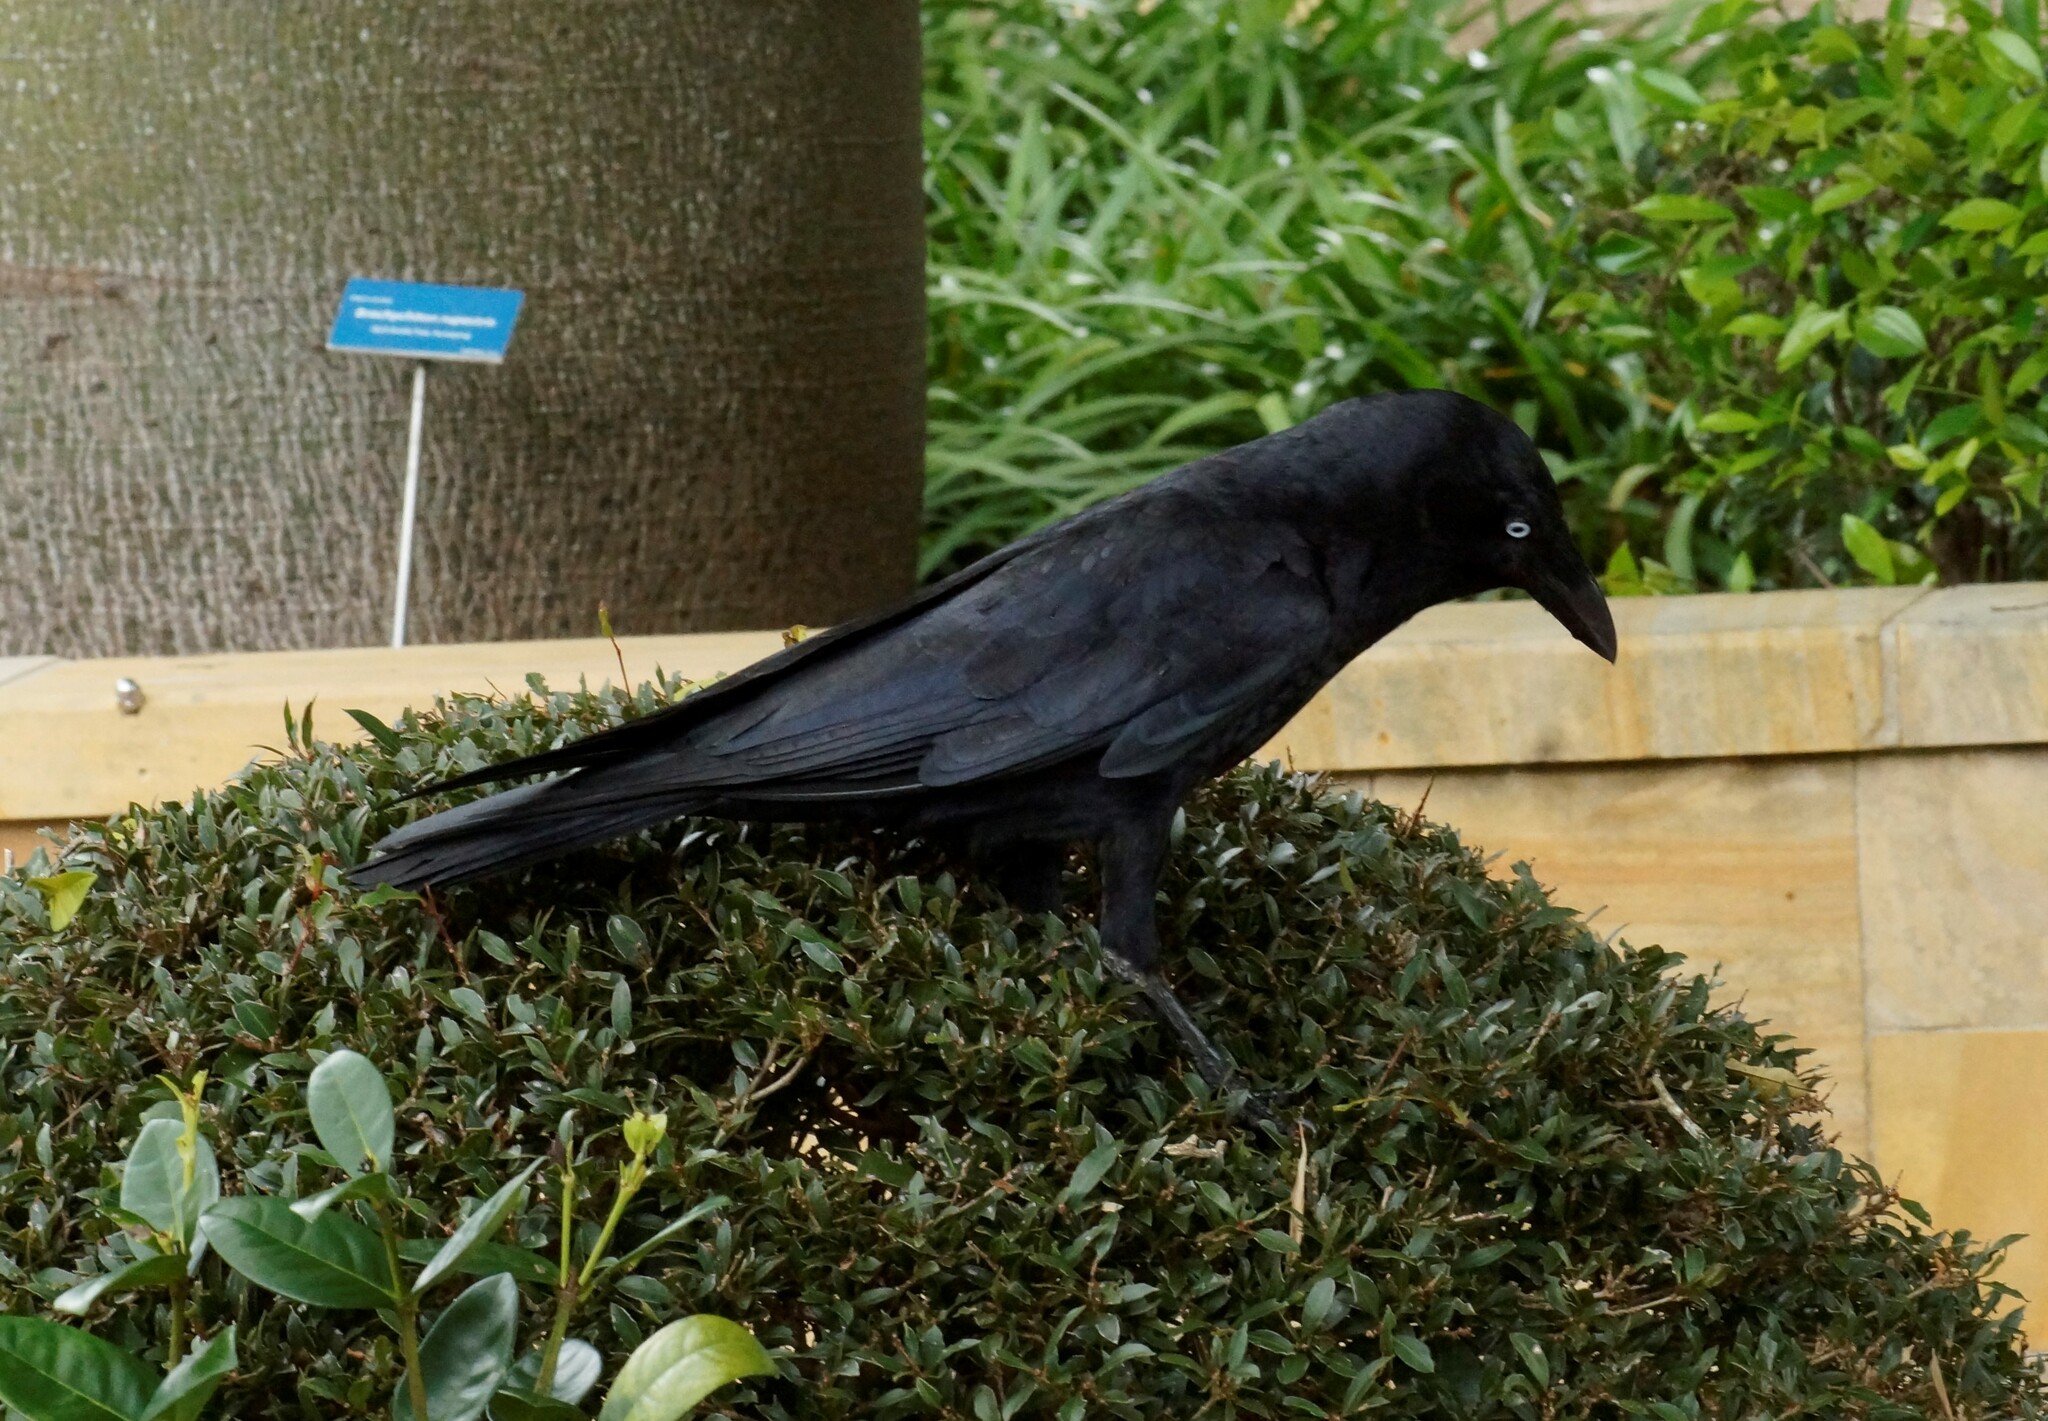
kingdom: Animalia
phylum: Chordata
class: Aves
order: Passeriformes
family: Corvidae
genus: Corvus
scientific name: Corvus orru
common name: Torresian crow
